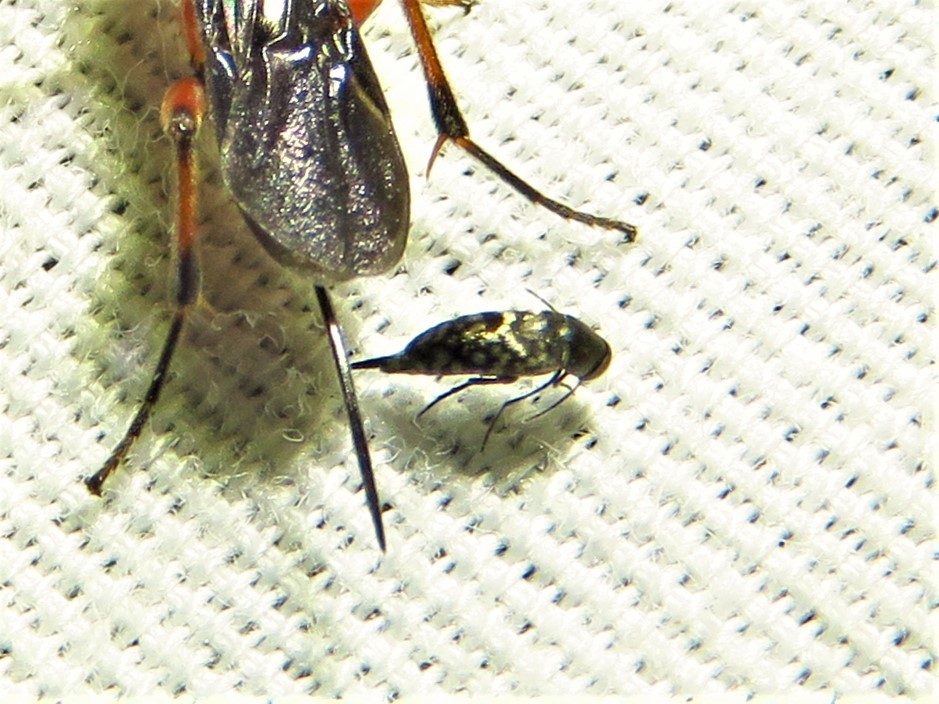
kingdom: Animalia
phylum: Arthropoda
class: Insecta
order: Coleoptera
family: Mordellidae
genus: Mordellina
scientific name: Mordellina pustulata
